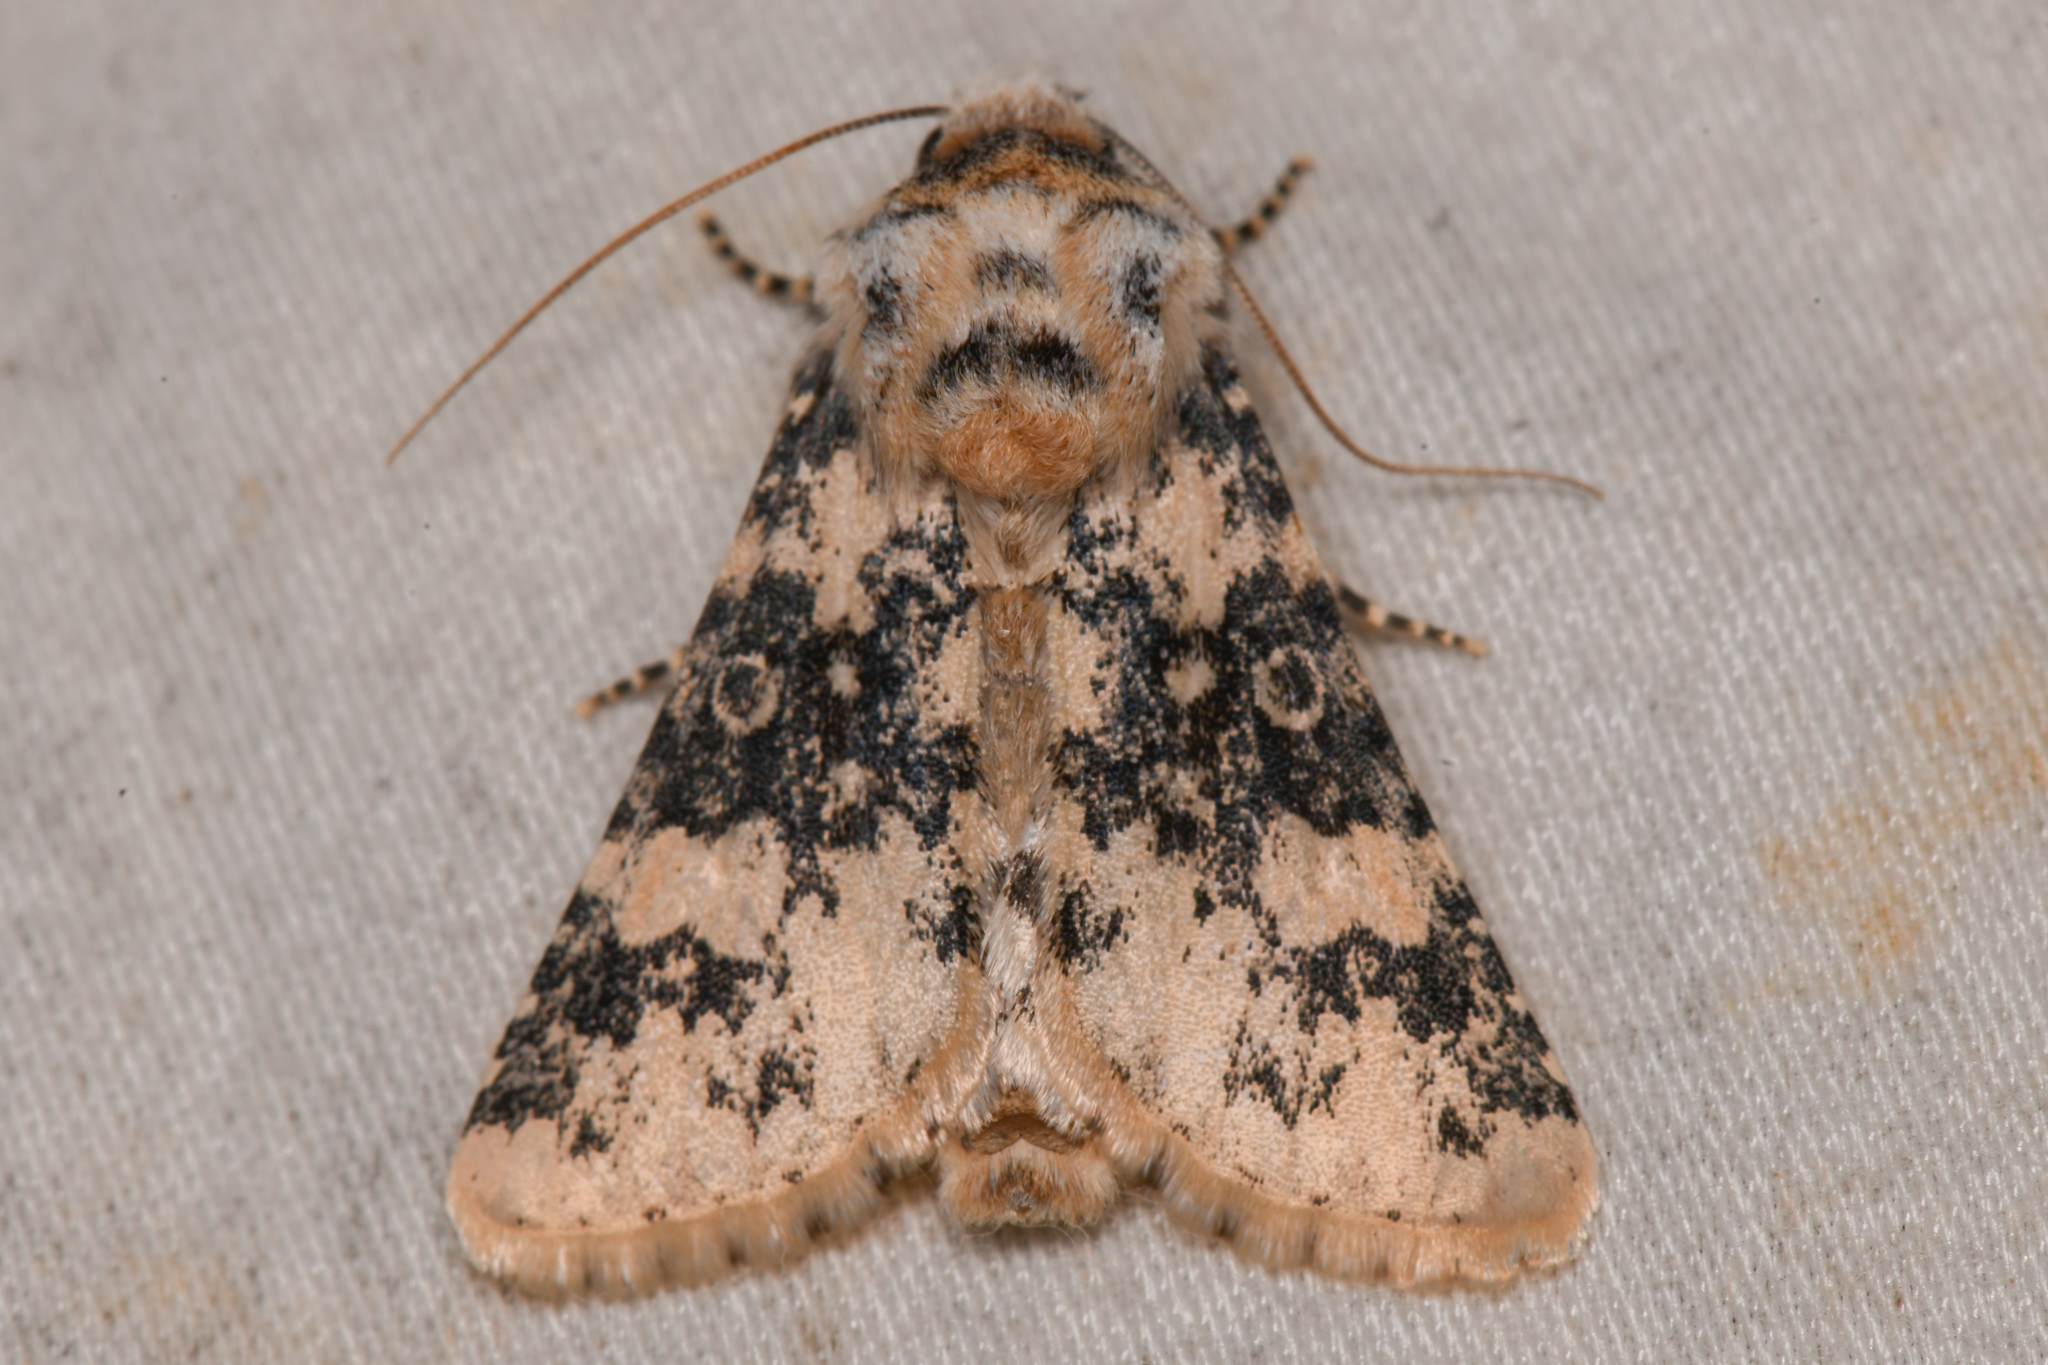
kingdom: Animalia
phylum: Arthropoda
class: Insecta
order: Lepidoptera
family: Noctuidae
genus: Unciella
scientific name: Unciella primula
